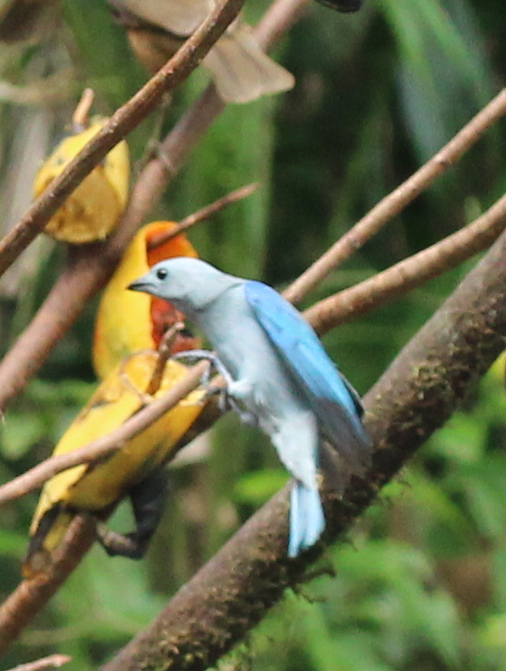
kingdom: Animalia
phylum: Chordata
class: Aves
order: Passeriformes
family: Thraupidae
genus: Thraupis
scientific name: Thraupis episcopus
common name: Blue-grey tanager
